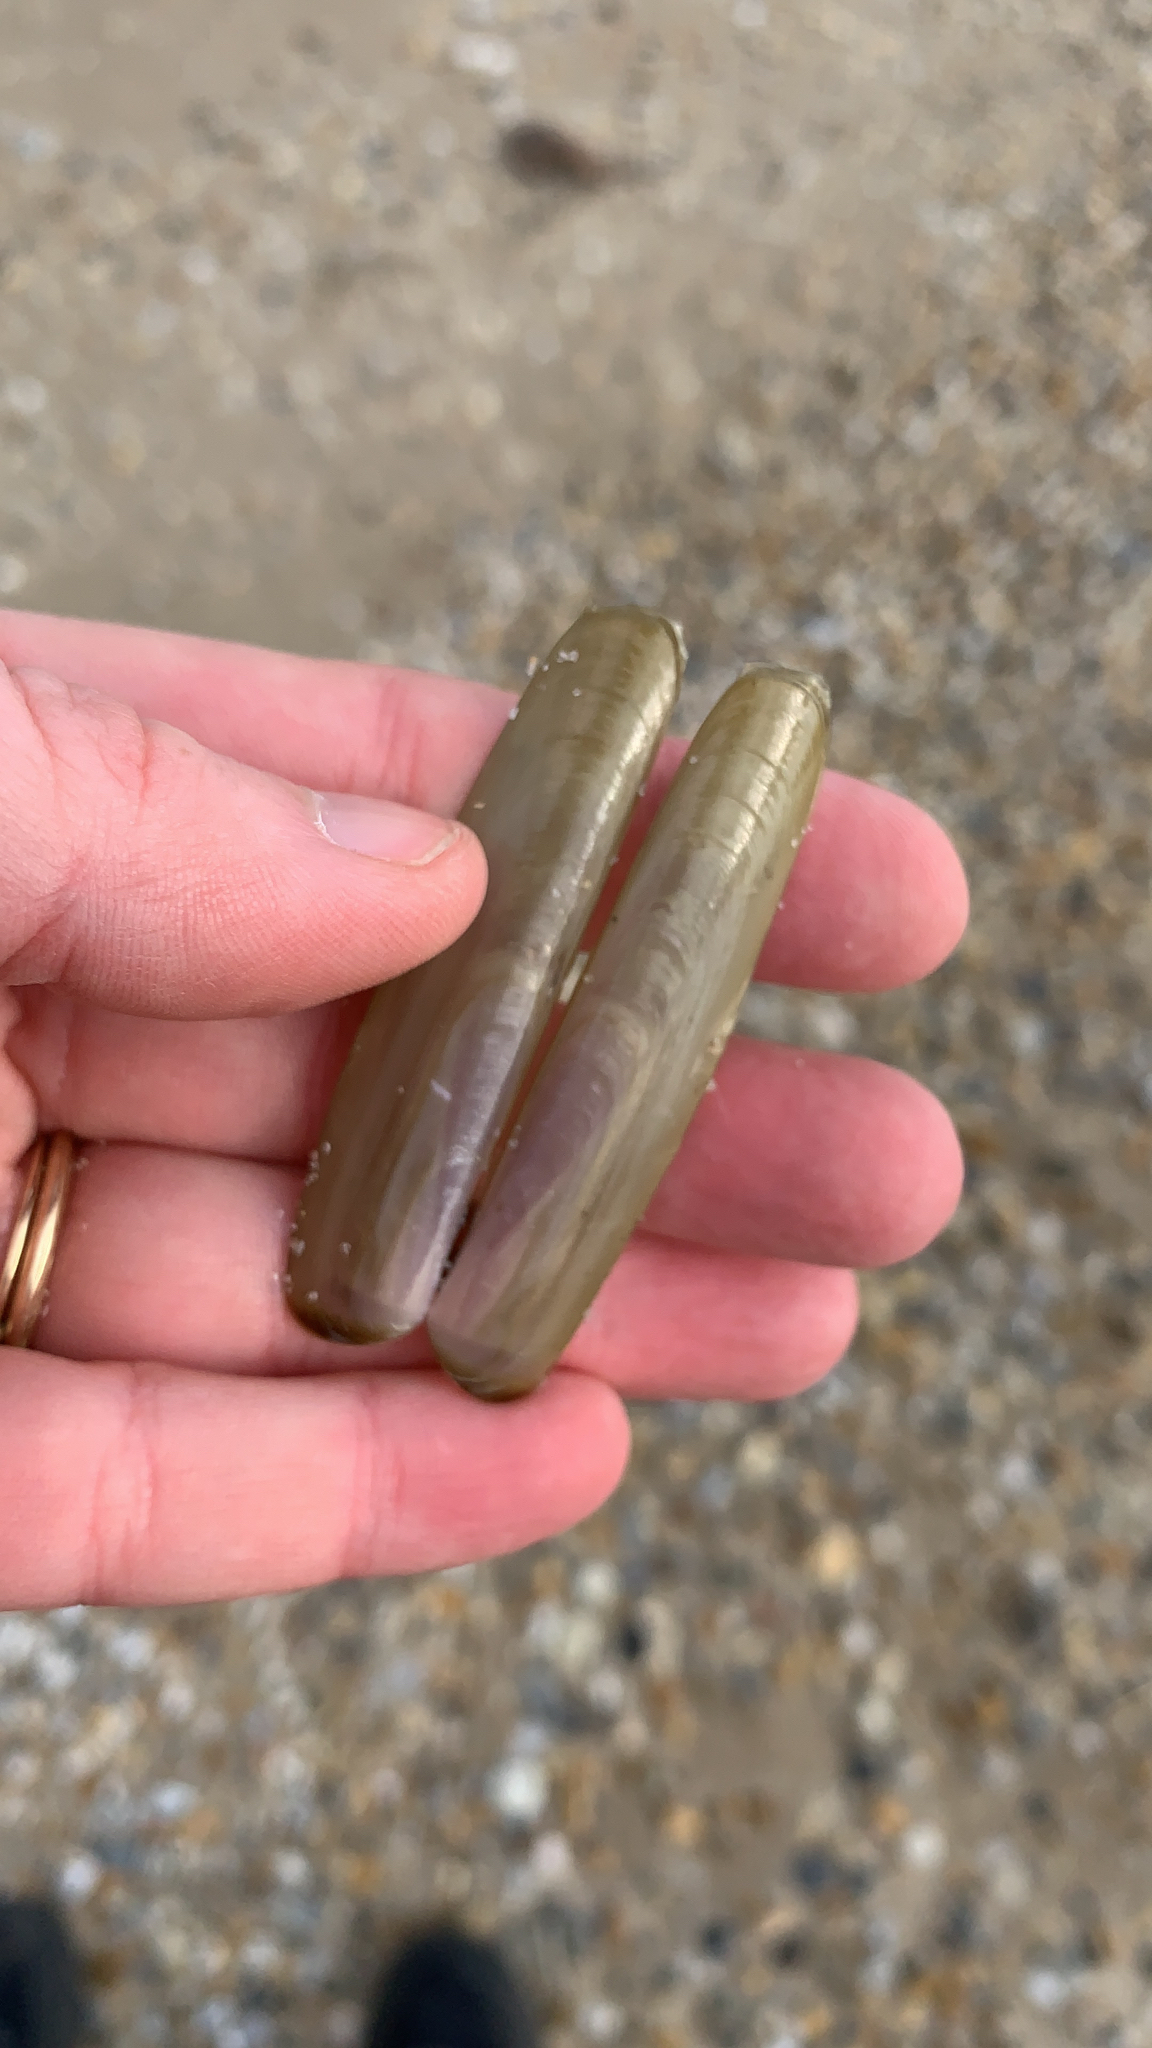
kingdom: Animalia
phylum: Mollusca
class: Bivalvia
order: Adapedonta
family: Solenidae
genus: Solen
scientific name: Solen viridis
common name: Green jackknife
